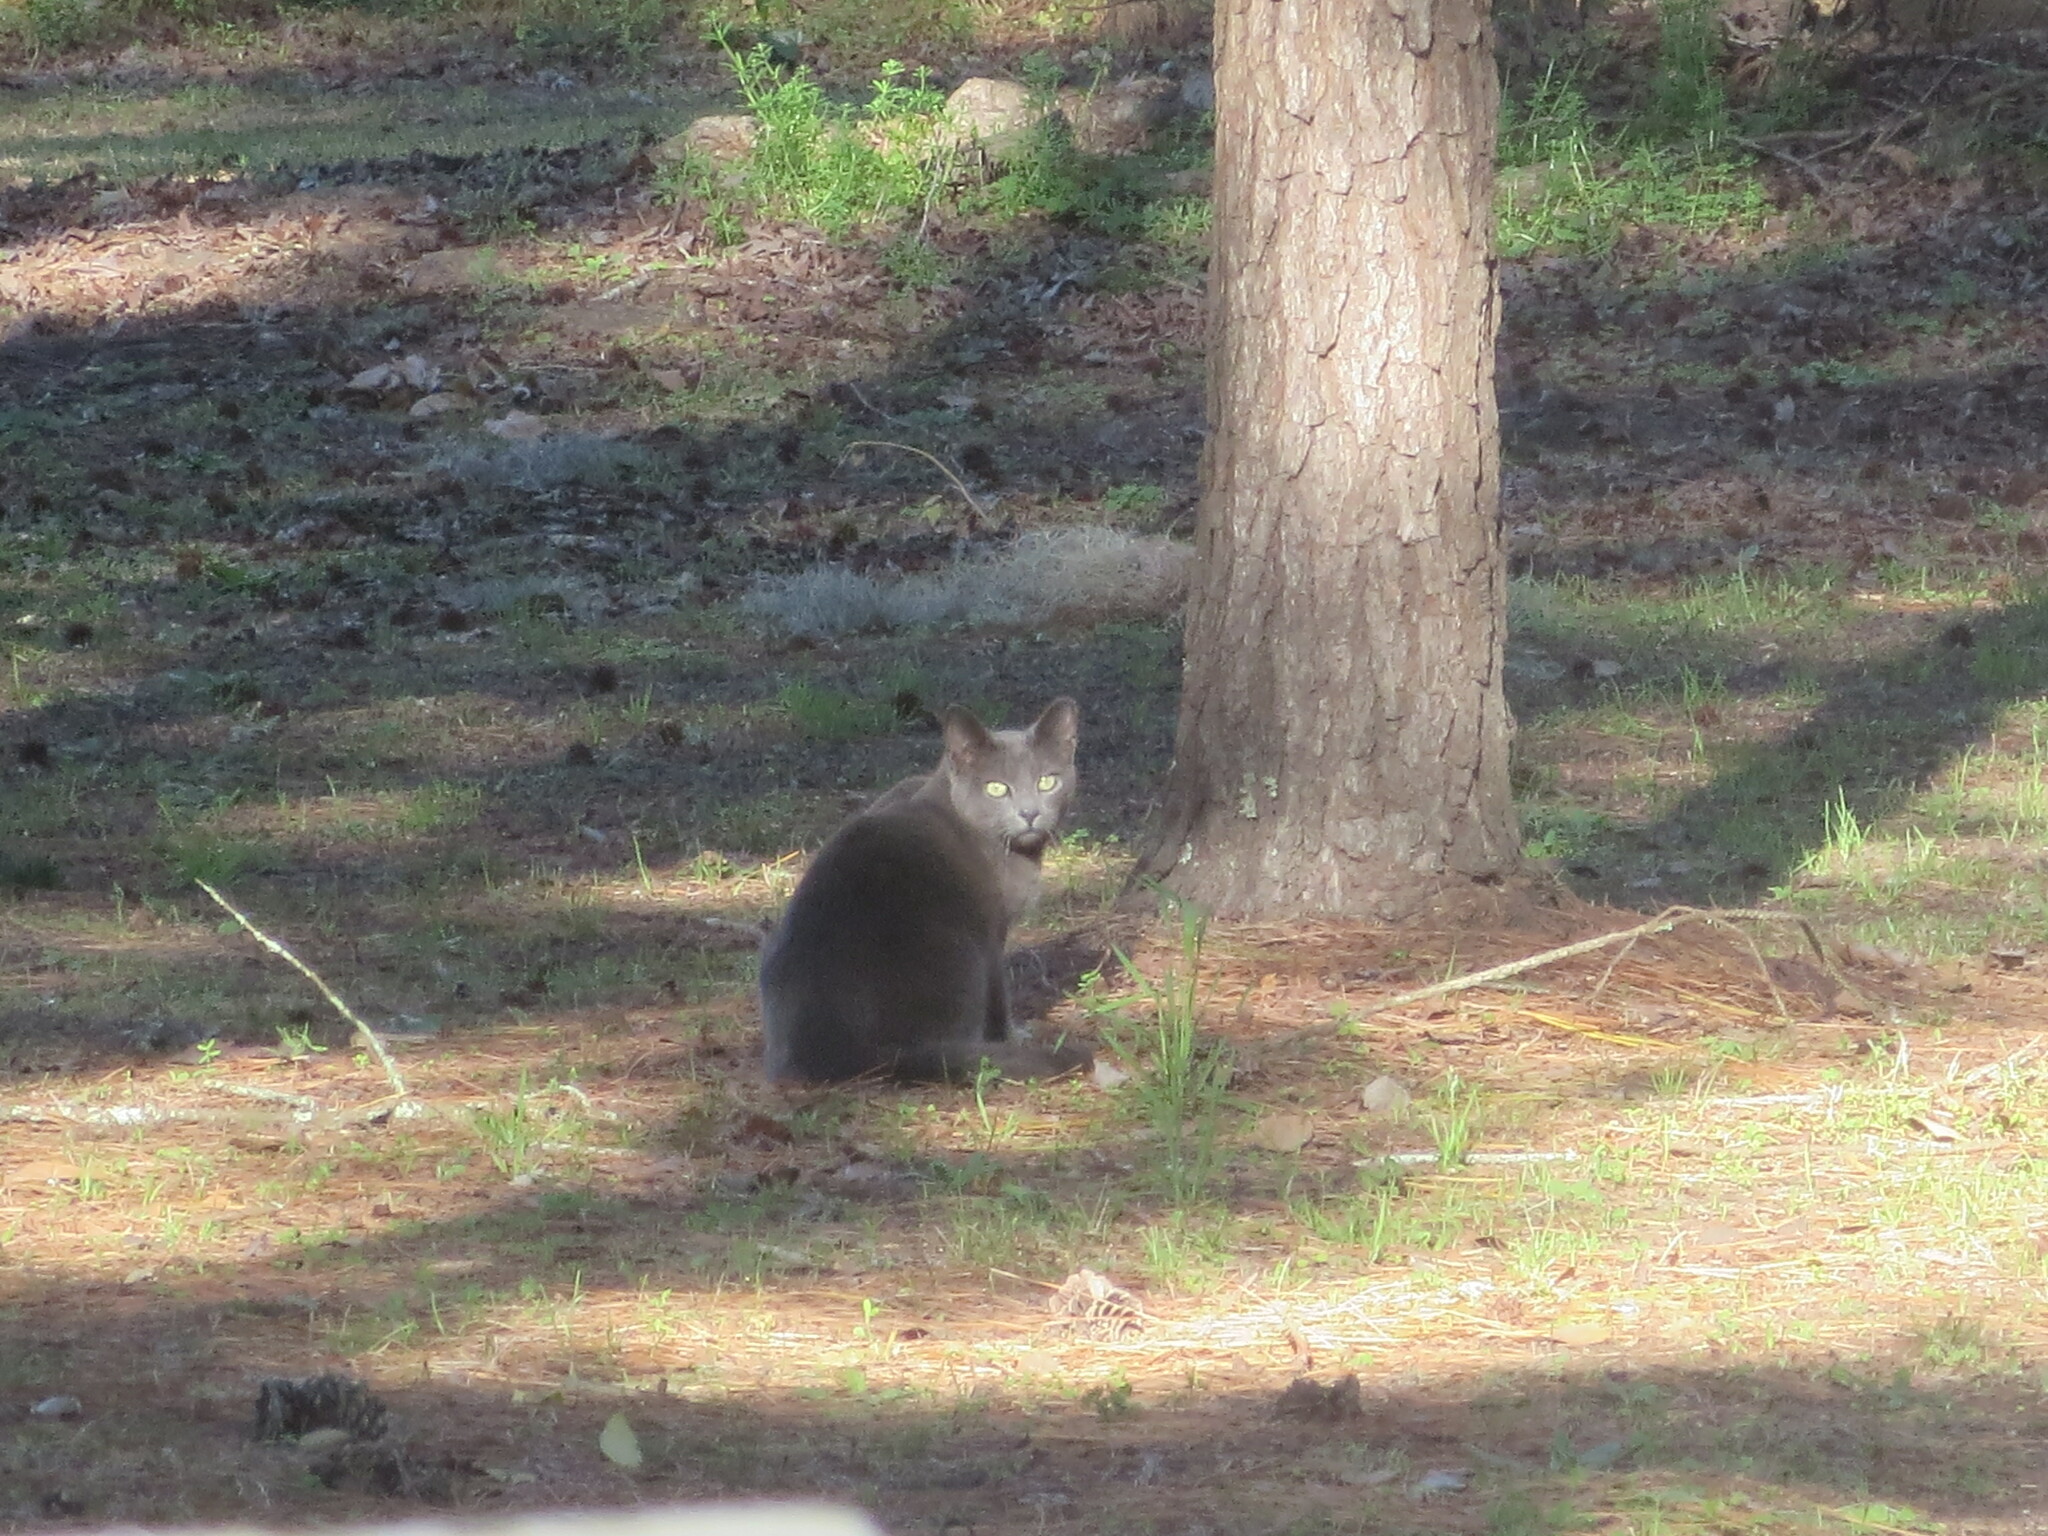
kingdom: Animalia
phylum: Chordata
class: Mammalia
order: Carnivora
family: Felidae
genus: Felis
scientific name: Felis catus
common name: Domestic cat
